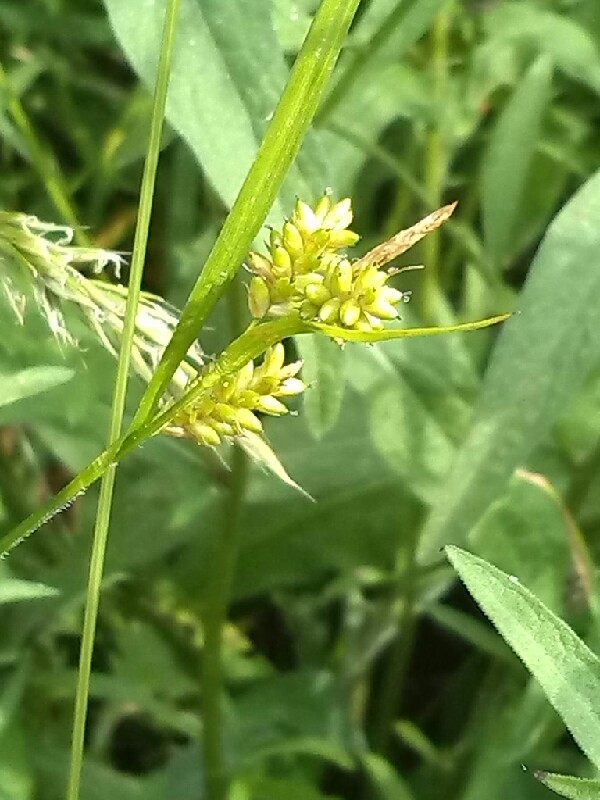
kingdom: Plantae
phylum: Tracheophyta
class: Liliopsida
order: Poales
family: Cyperaceae
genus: Carex
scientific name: Carex pallescens
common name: Pale sedge
